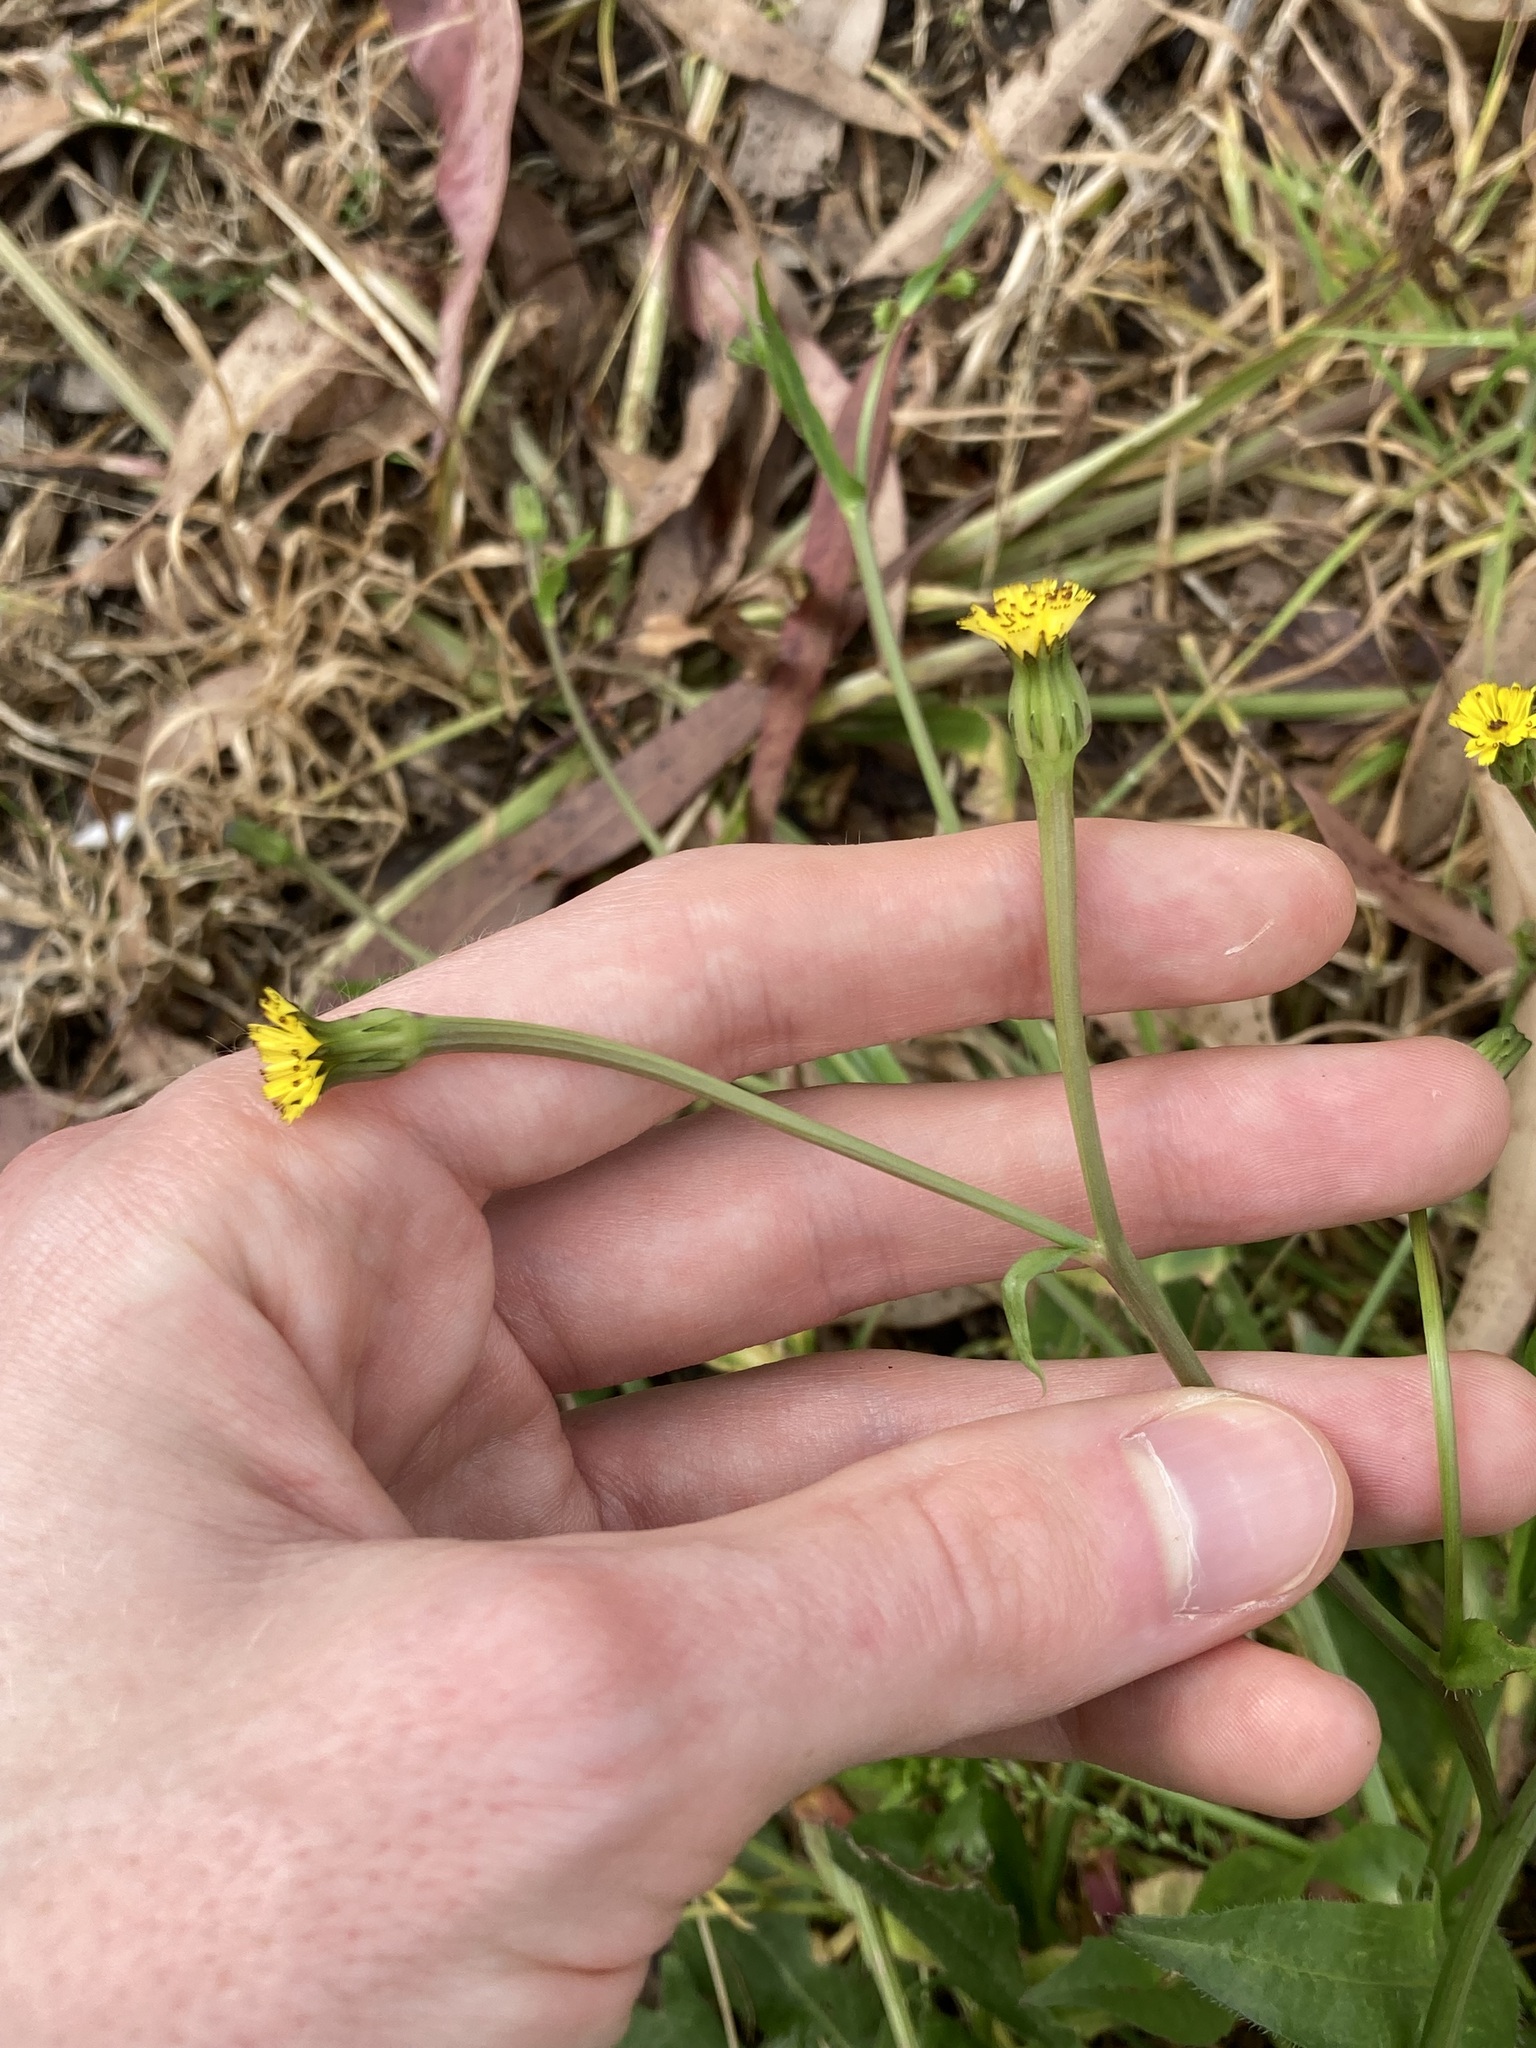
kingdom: Plantae
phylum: Tracheophyta
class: Magnoliopsida
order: Asterales
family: Asteraceae
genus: Hedypnois
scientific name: Hedypnois rhagadioloides
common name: Cretan weed
